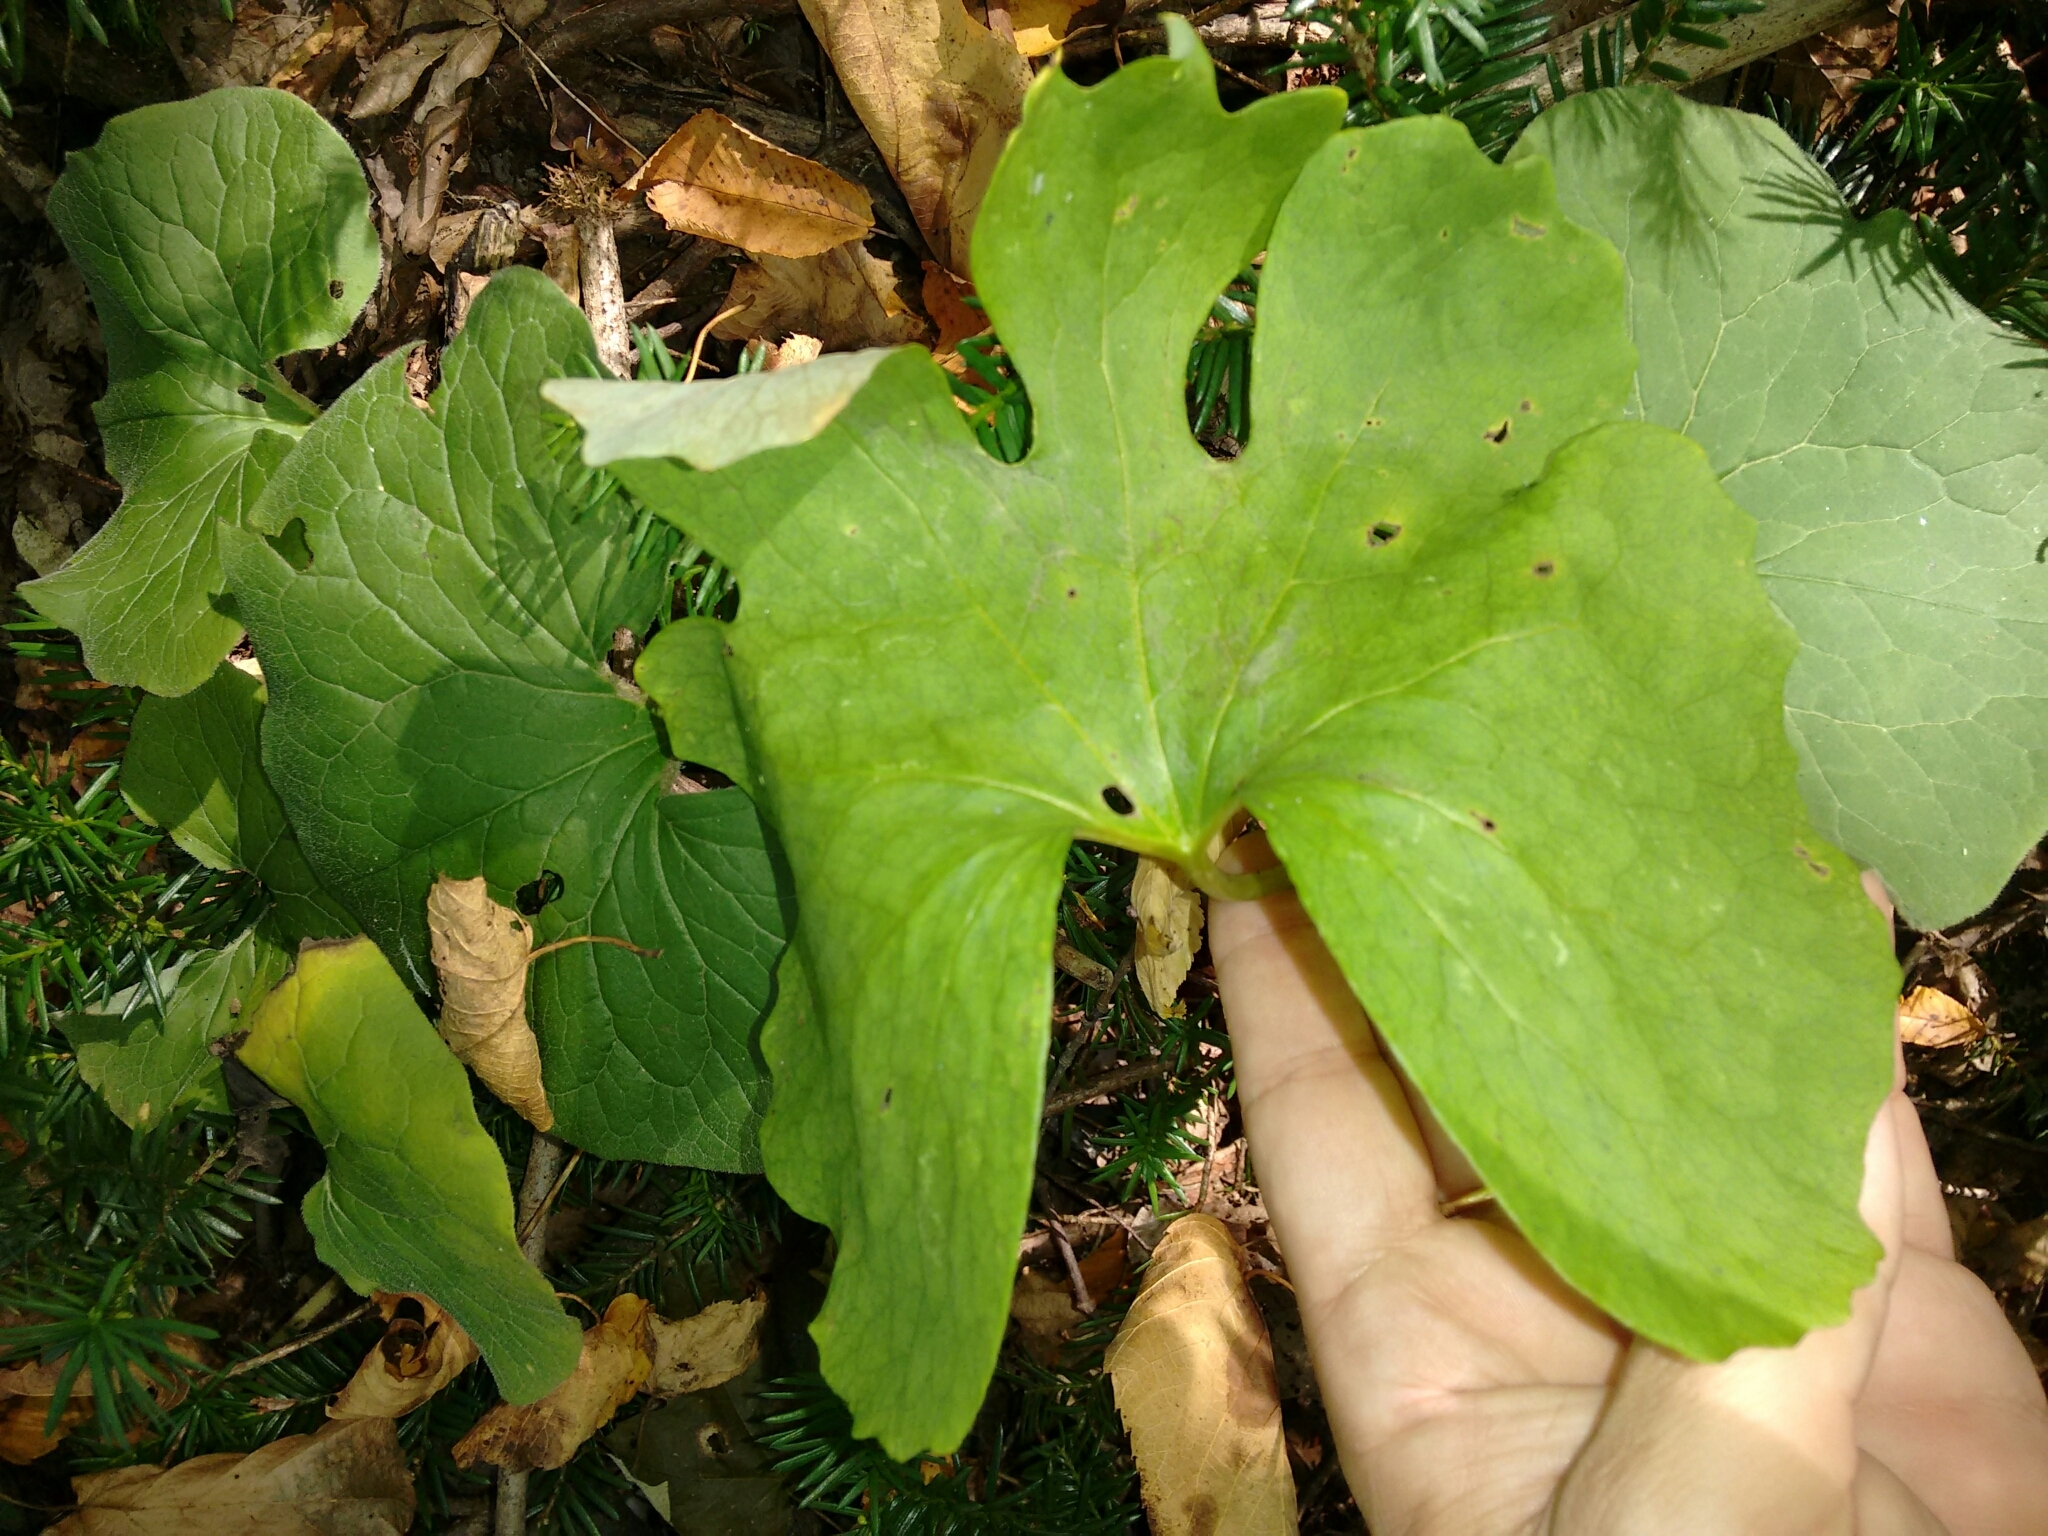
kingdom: Plantae
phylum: Tracheophyta
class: Magnoliopsida
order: Ranunculales
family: Papaveraceae
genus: Sanguinaria
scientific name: Sanguinaria canadensis
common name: Bloodroot
